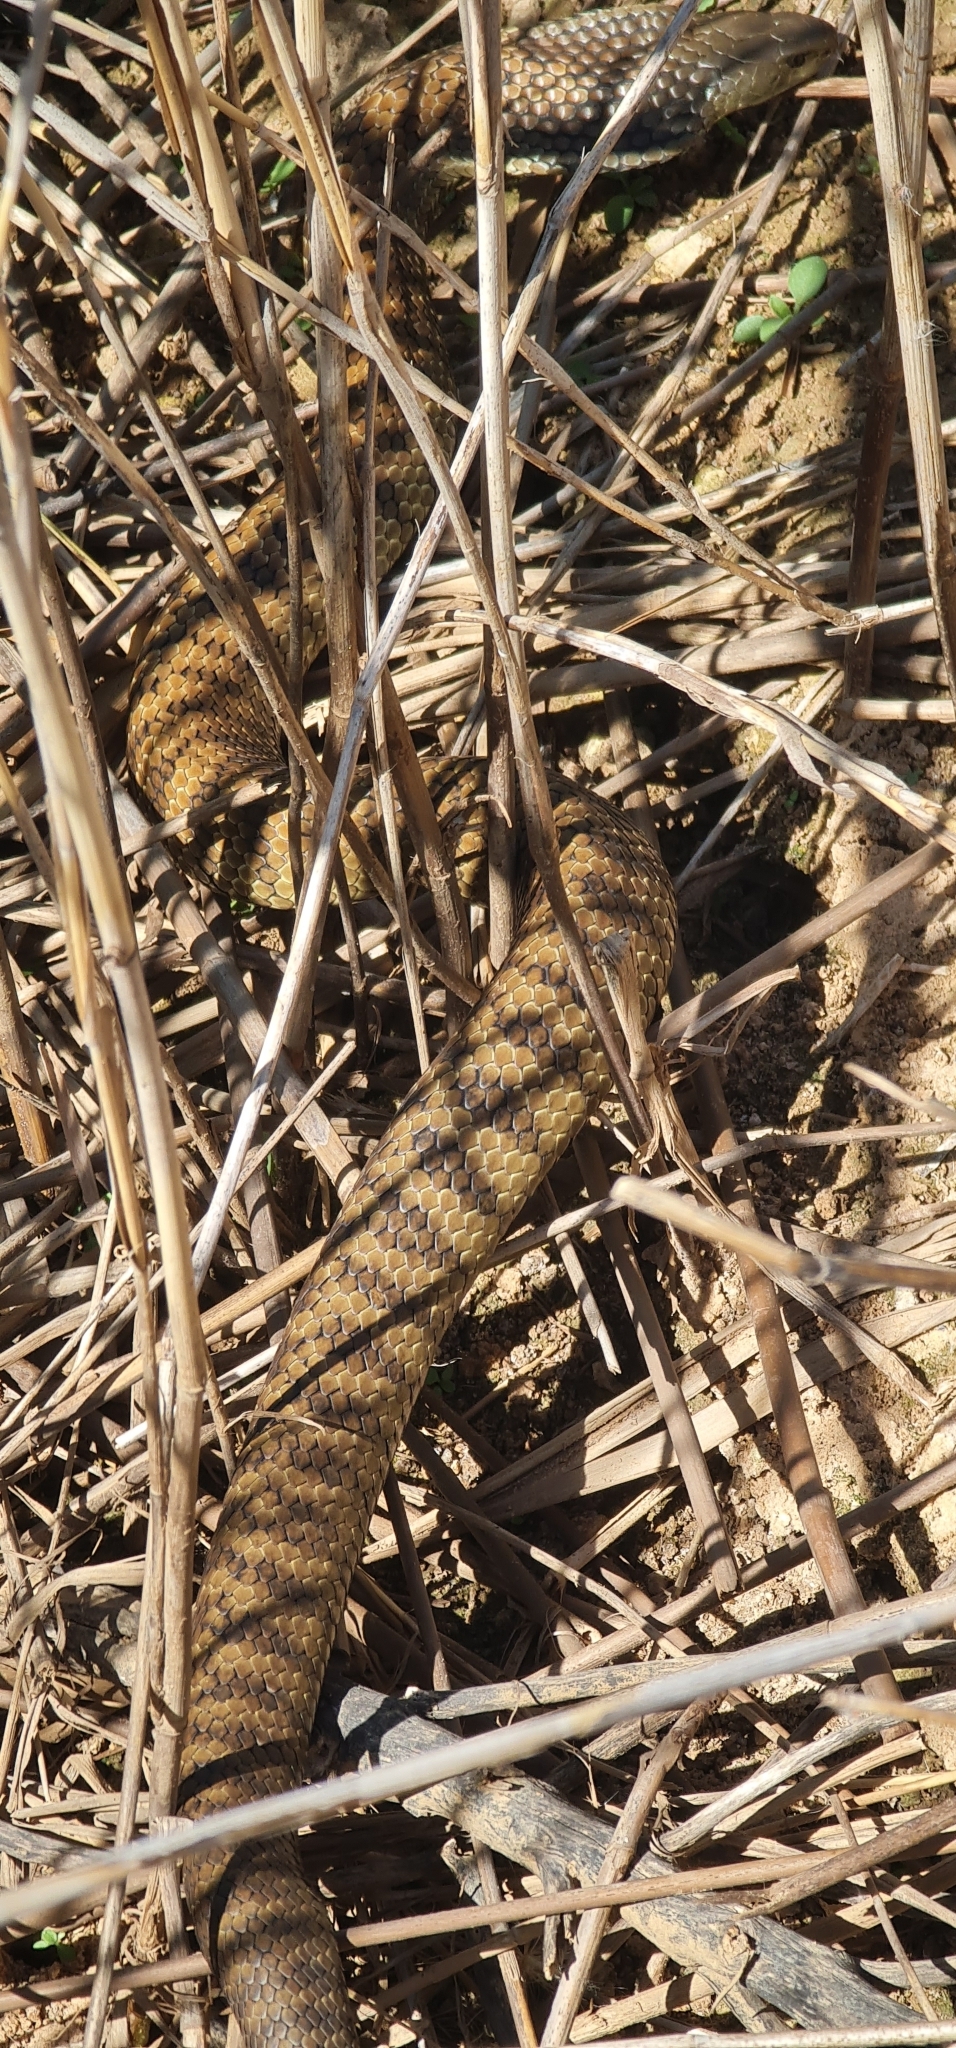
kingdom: Animalia
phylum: Chordata
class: Squamata
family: Elapidae
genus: Notechis
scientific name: Notechis scutatus
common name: Mainland tiger snake
